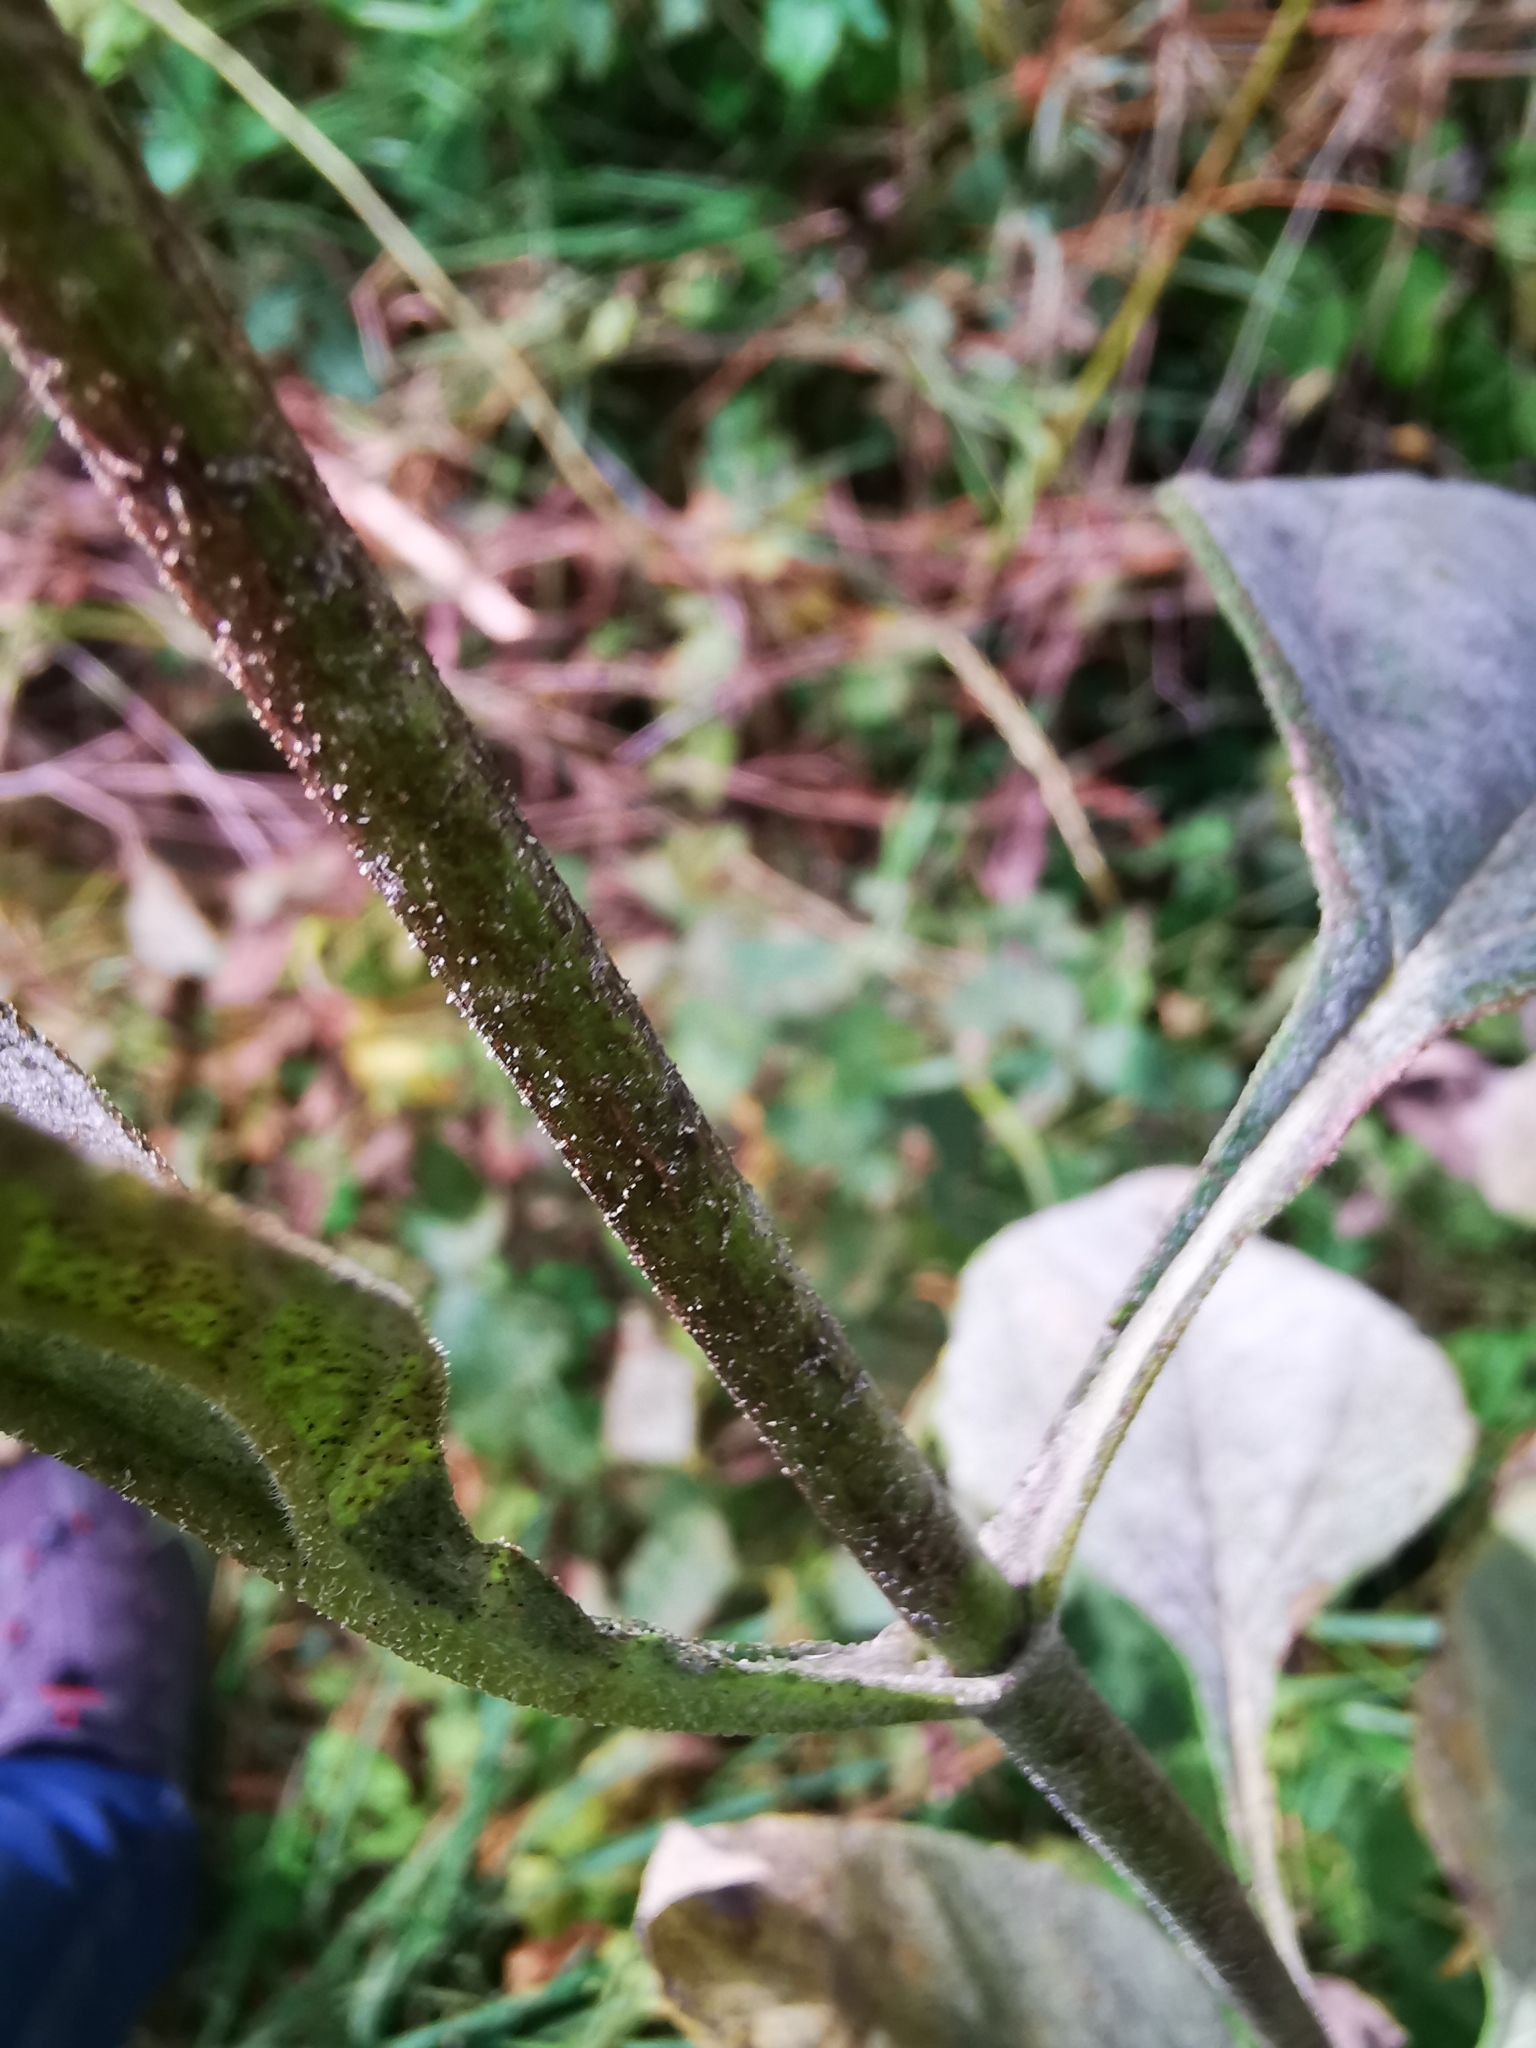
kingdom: Plantae
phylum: Tracheophyta
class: Magnoliopsida
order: Asterales
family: Asteraceae
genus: Helianthus
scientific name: Helianthus tuberosus
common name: Jerusalem artichoke
